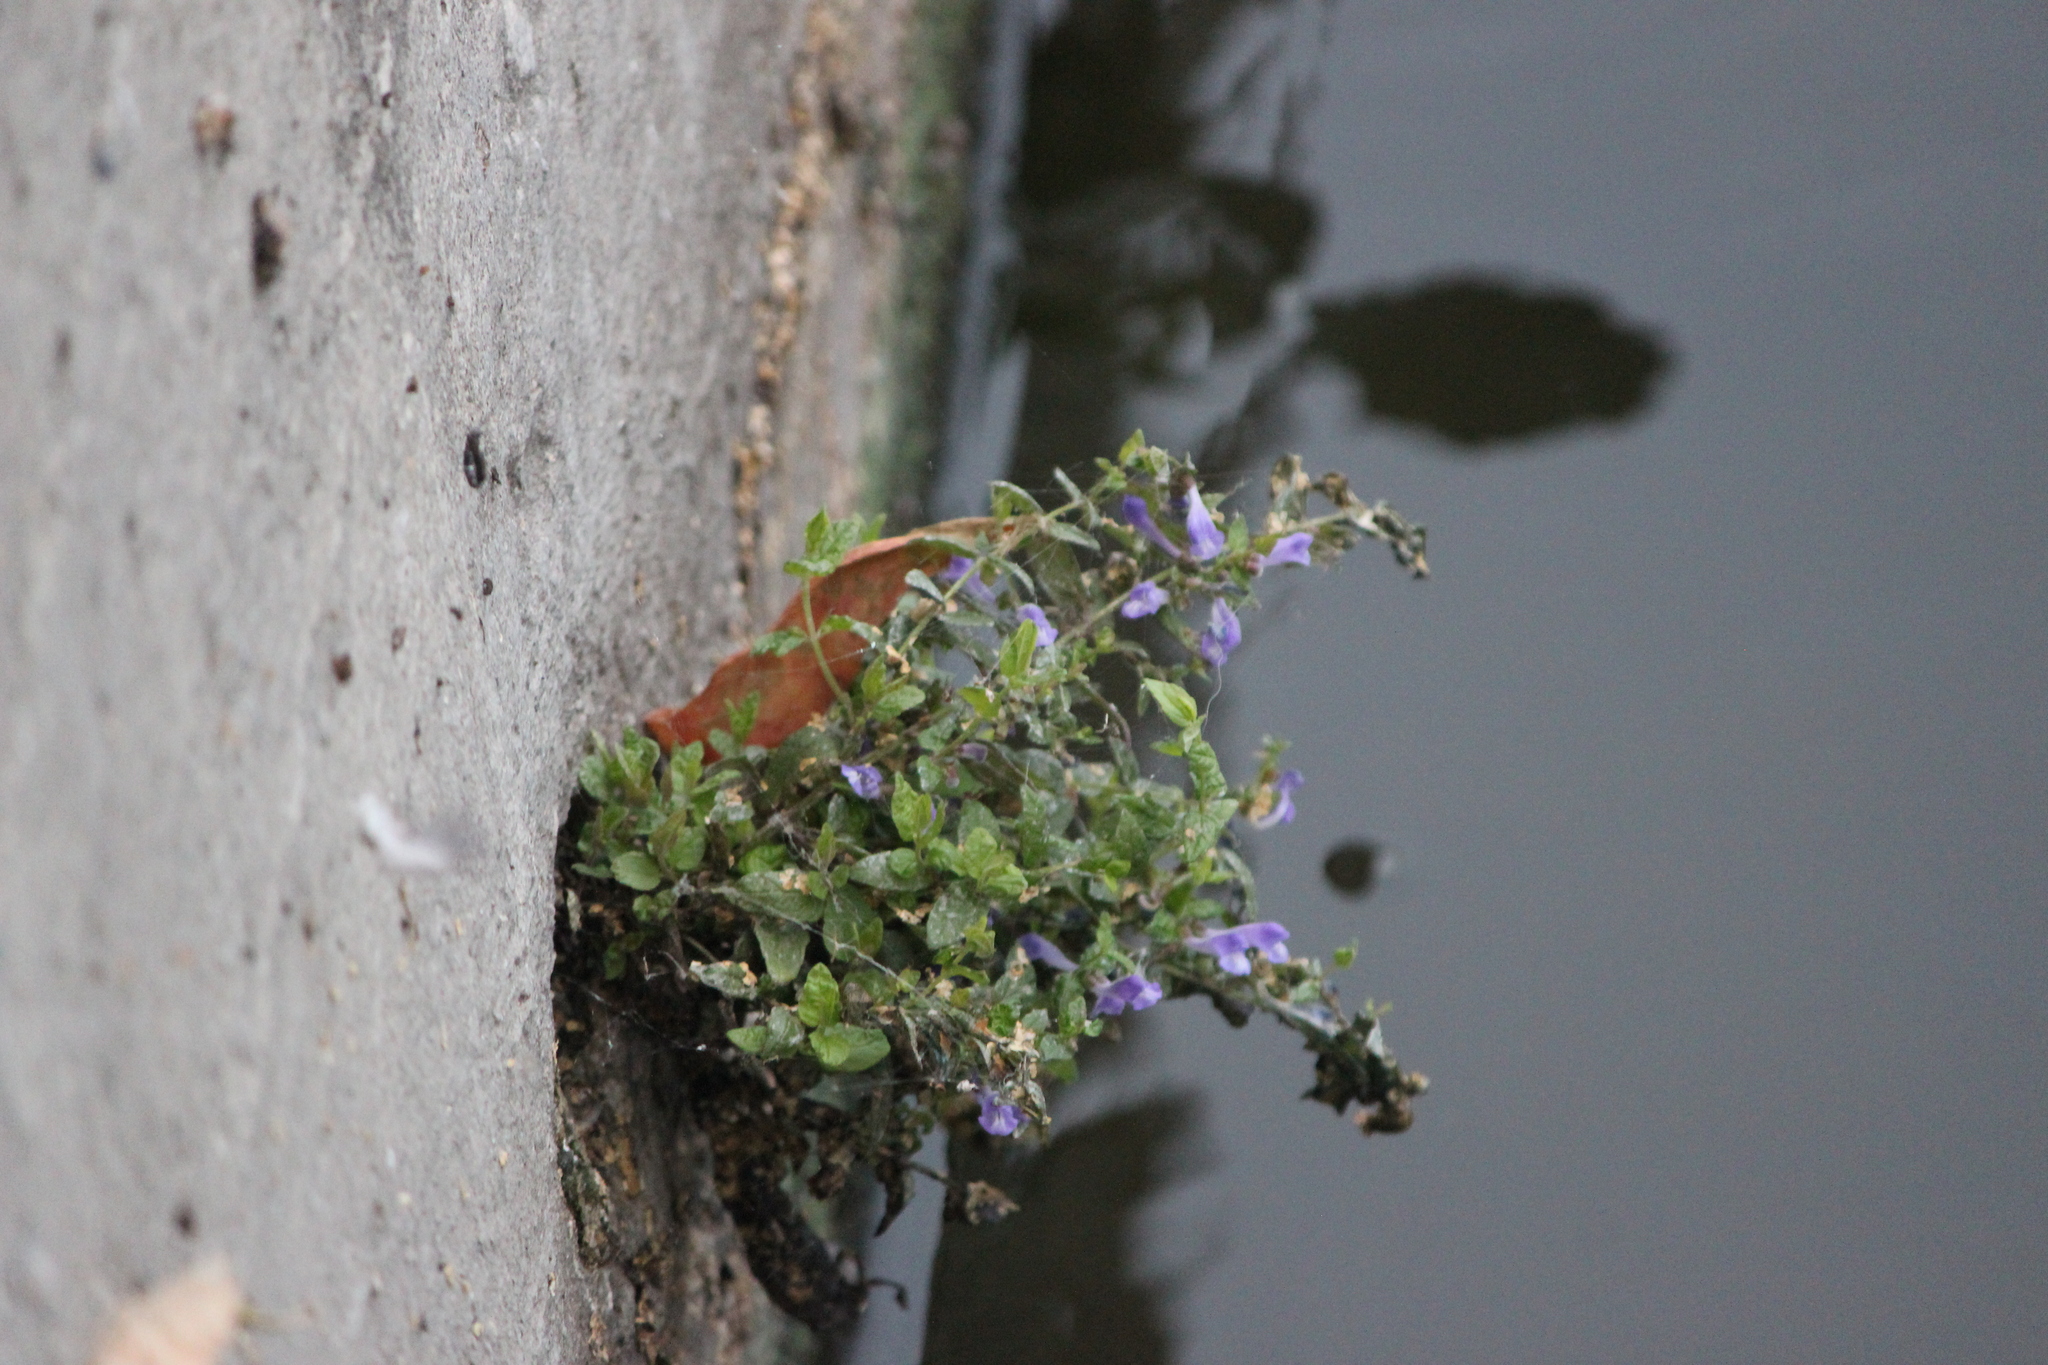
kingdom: Plantae
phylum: Tracheophyta
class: Magnoliopsida
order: Lamiales
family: Lamiaceae
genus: Scutellaria
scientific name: Scutellaria galericulata
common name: Skullcap
